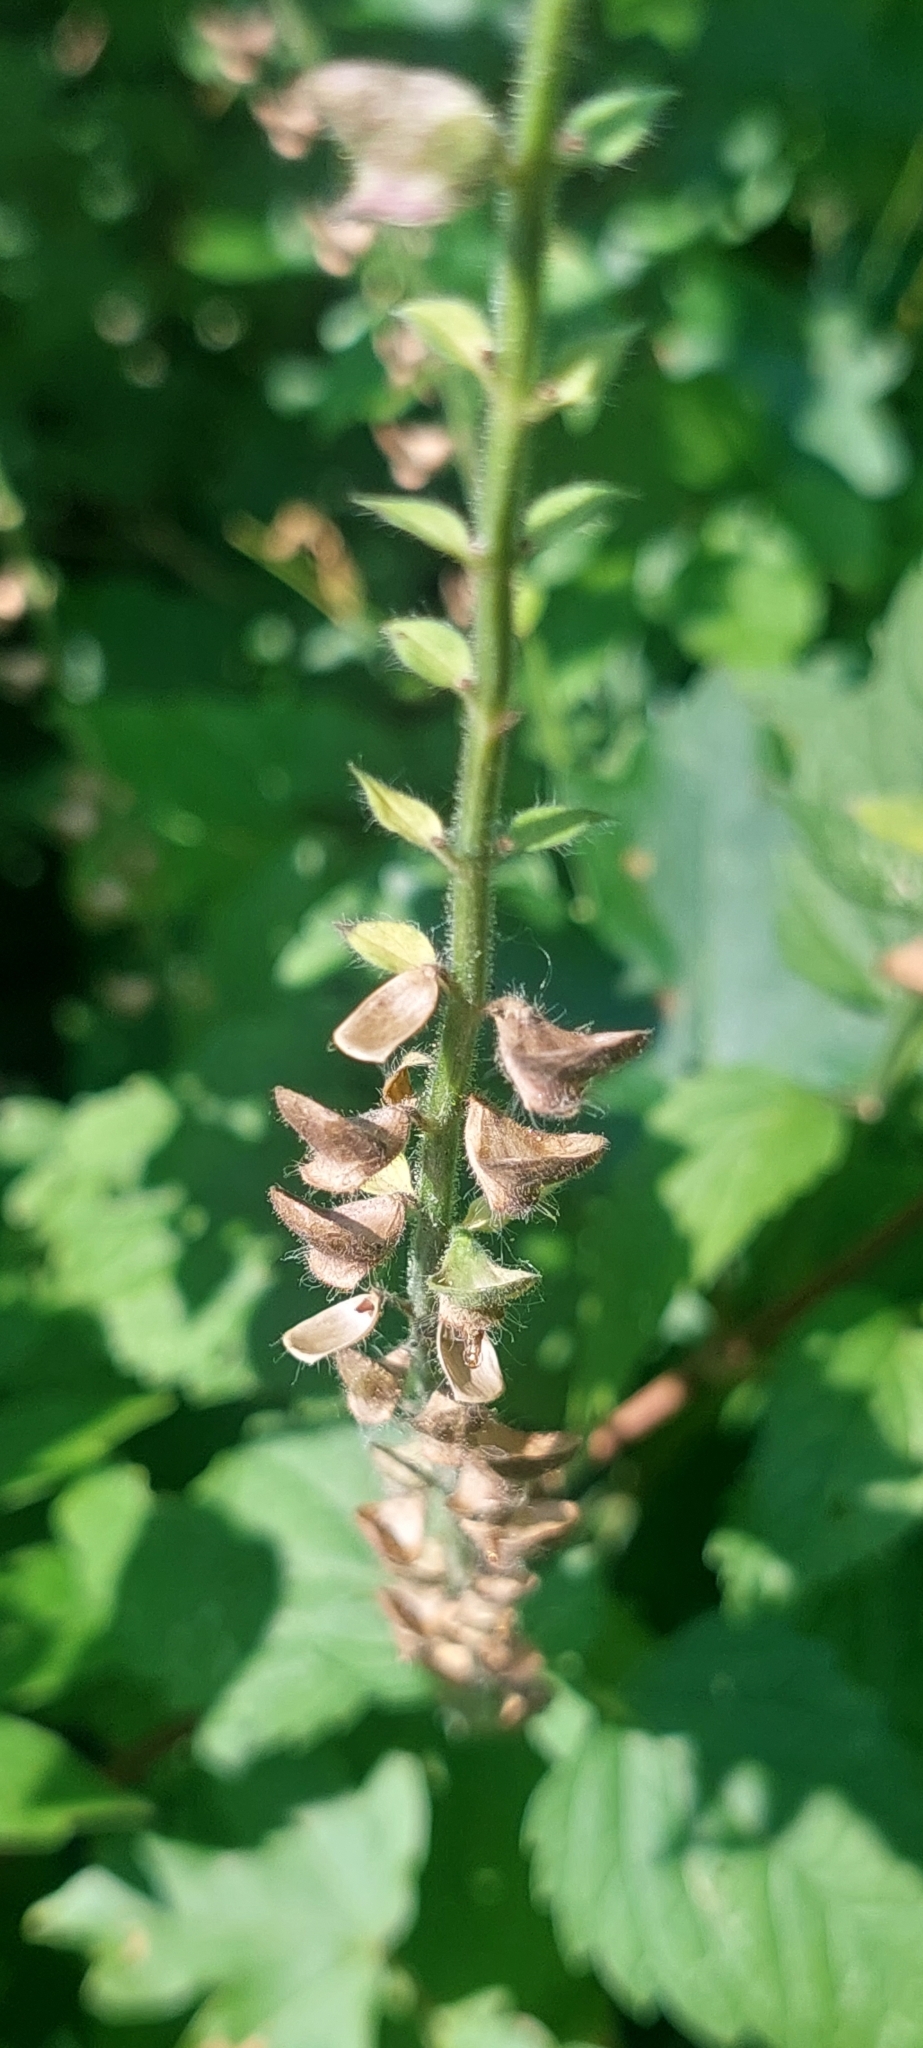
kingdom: Plantae
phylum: Tracheophyta
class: Magnoliopsida
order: Lamiales
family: Lamiaceae
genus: Scutellaria
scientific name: Scutellaria altissima
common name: Somerset skullcap
